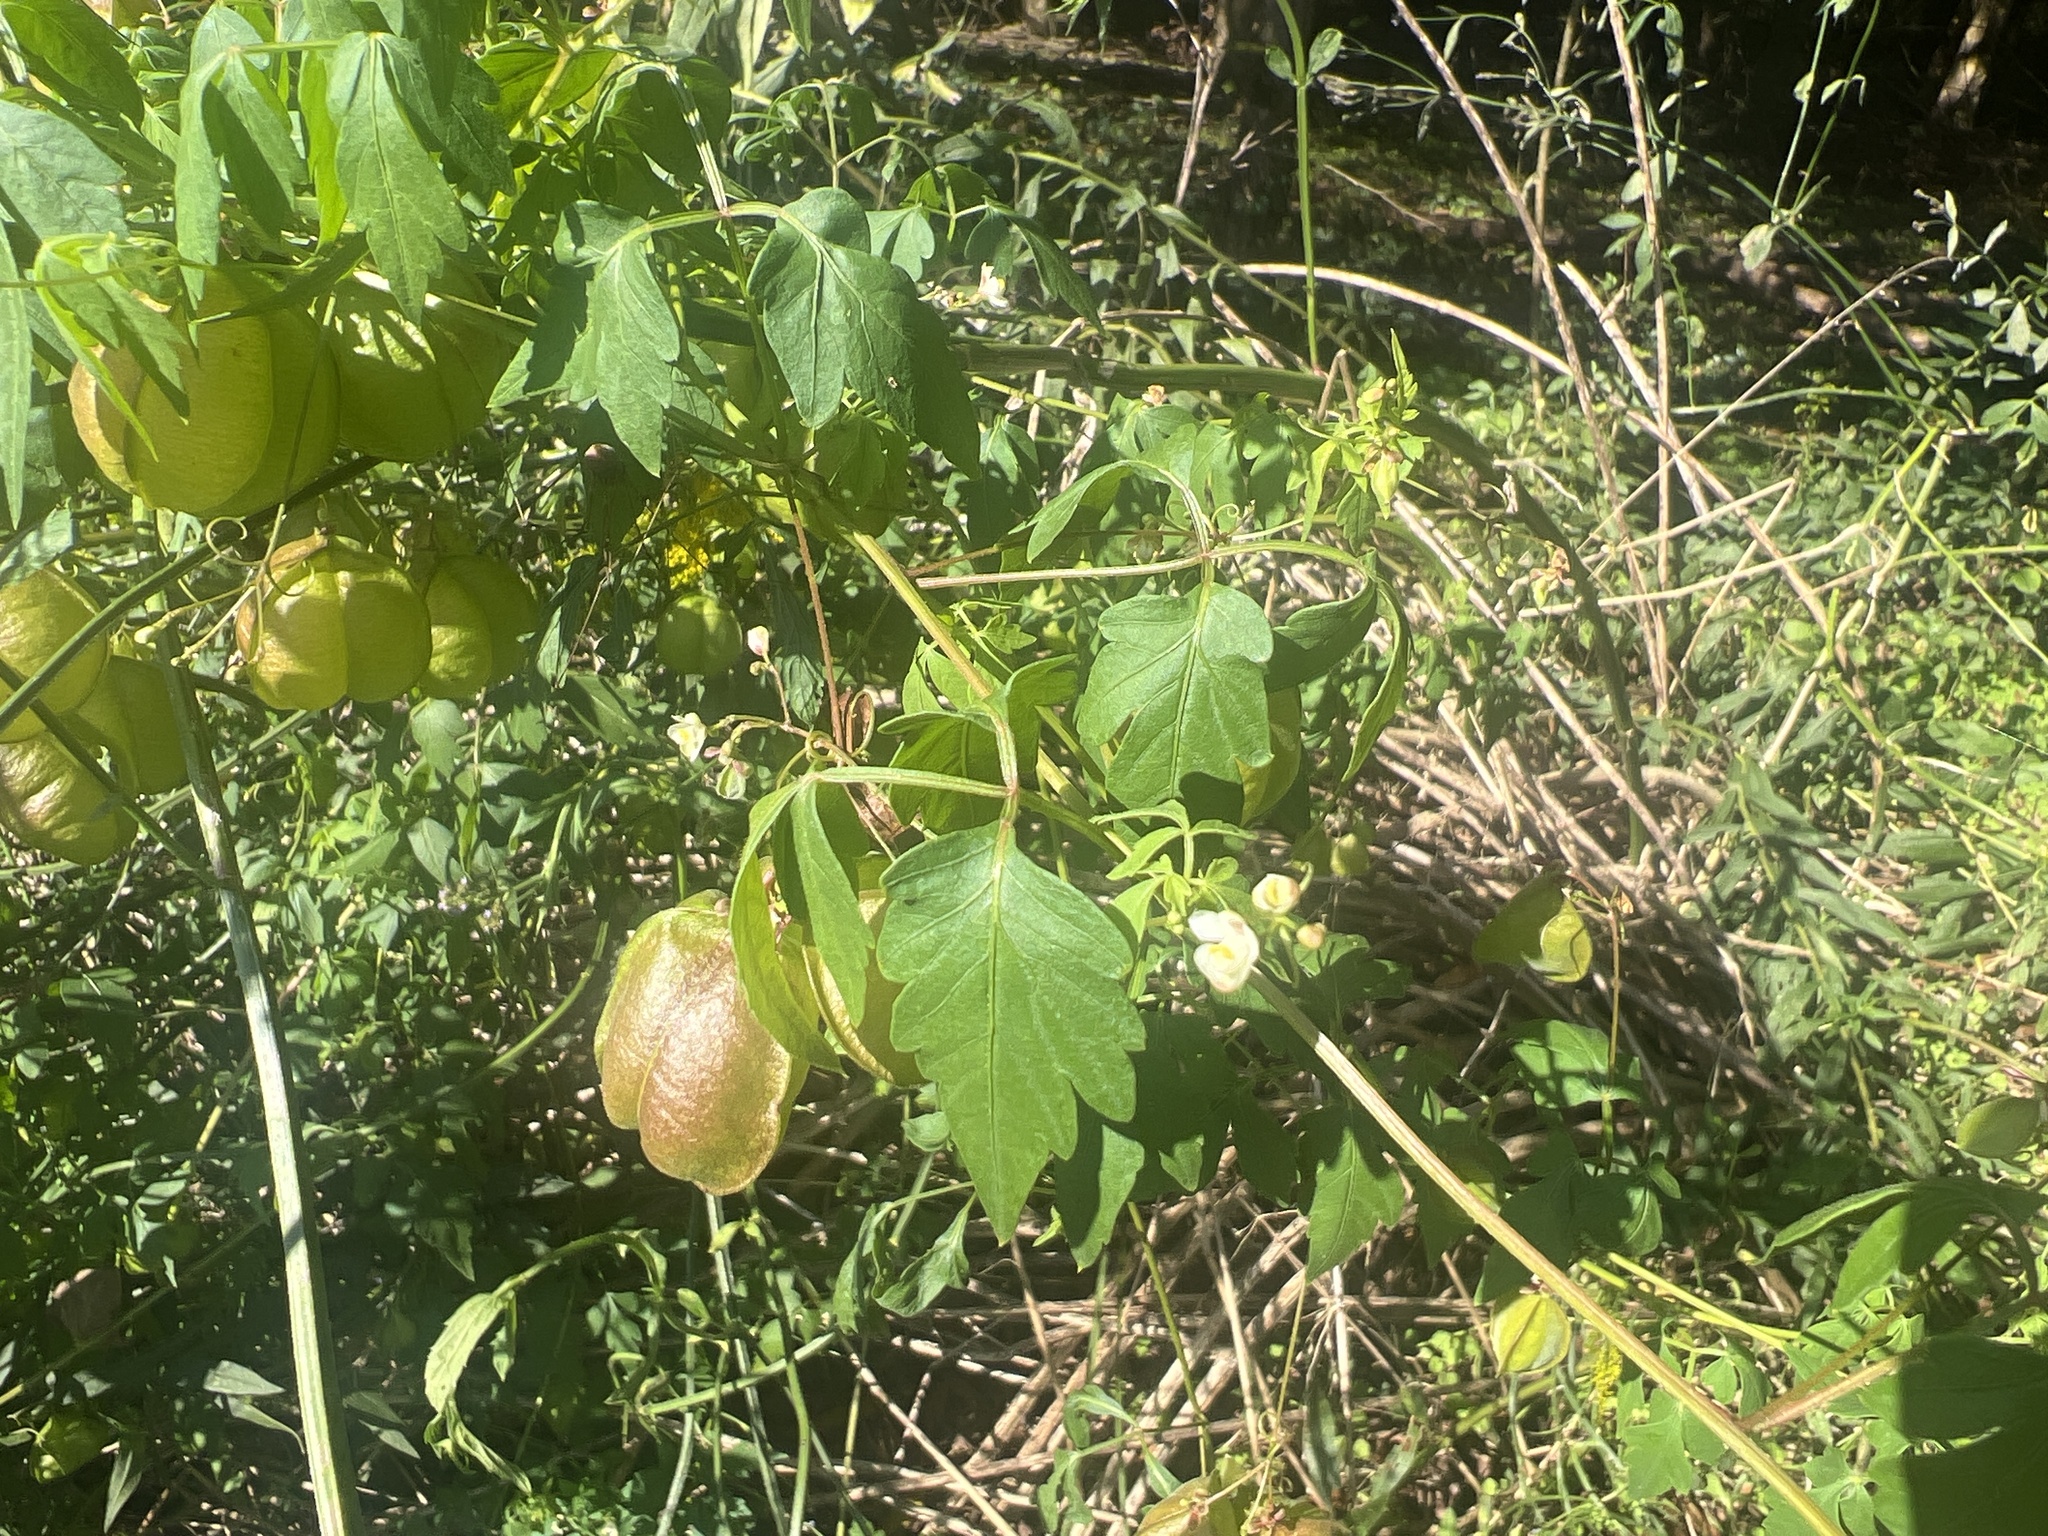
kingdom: Plantae
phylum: Tracheophyta
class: Magnoliopsida
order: Sapindales
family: Sapindaceae
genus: Cardiospermum
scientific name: Cardiospermum halicacabum
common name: Balloon vine
